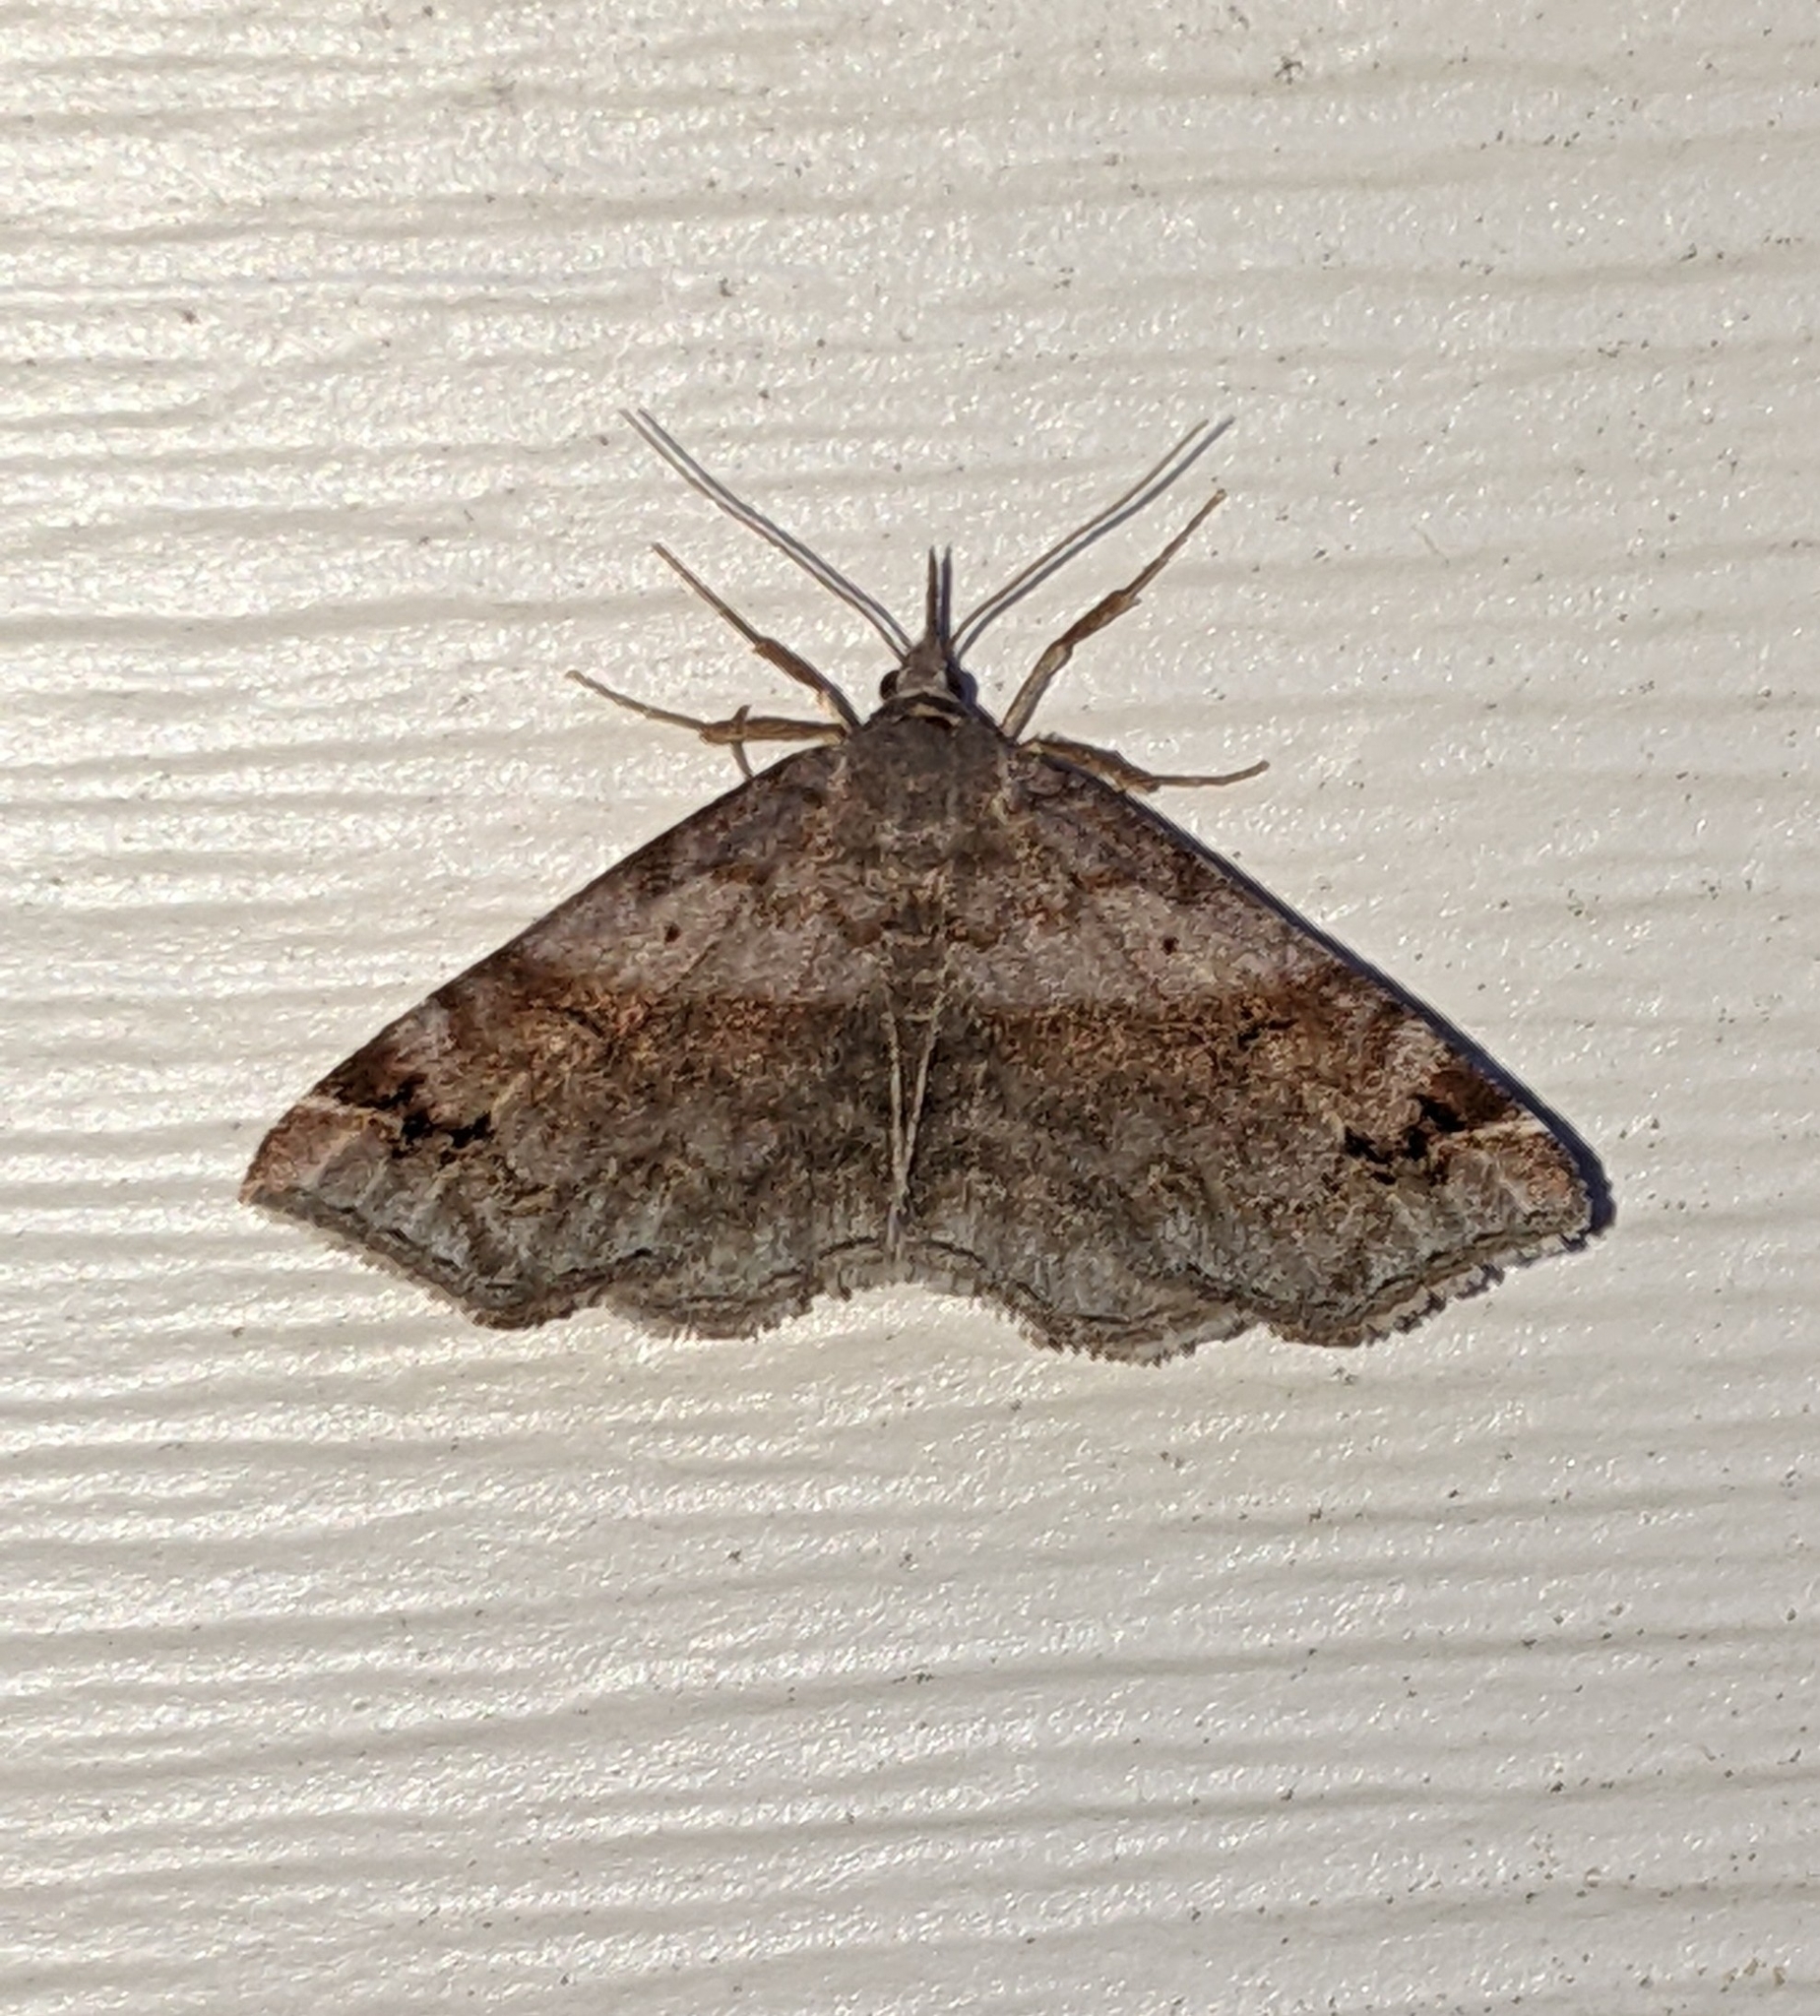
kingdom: Animalia
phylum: Arthropoda
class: Insecta
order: Lepidoptera
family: Erebidae
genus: Spargaloma
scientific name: Spargaloma sexpunctata
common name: Six-spotted gray
